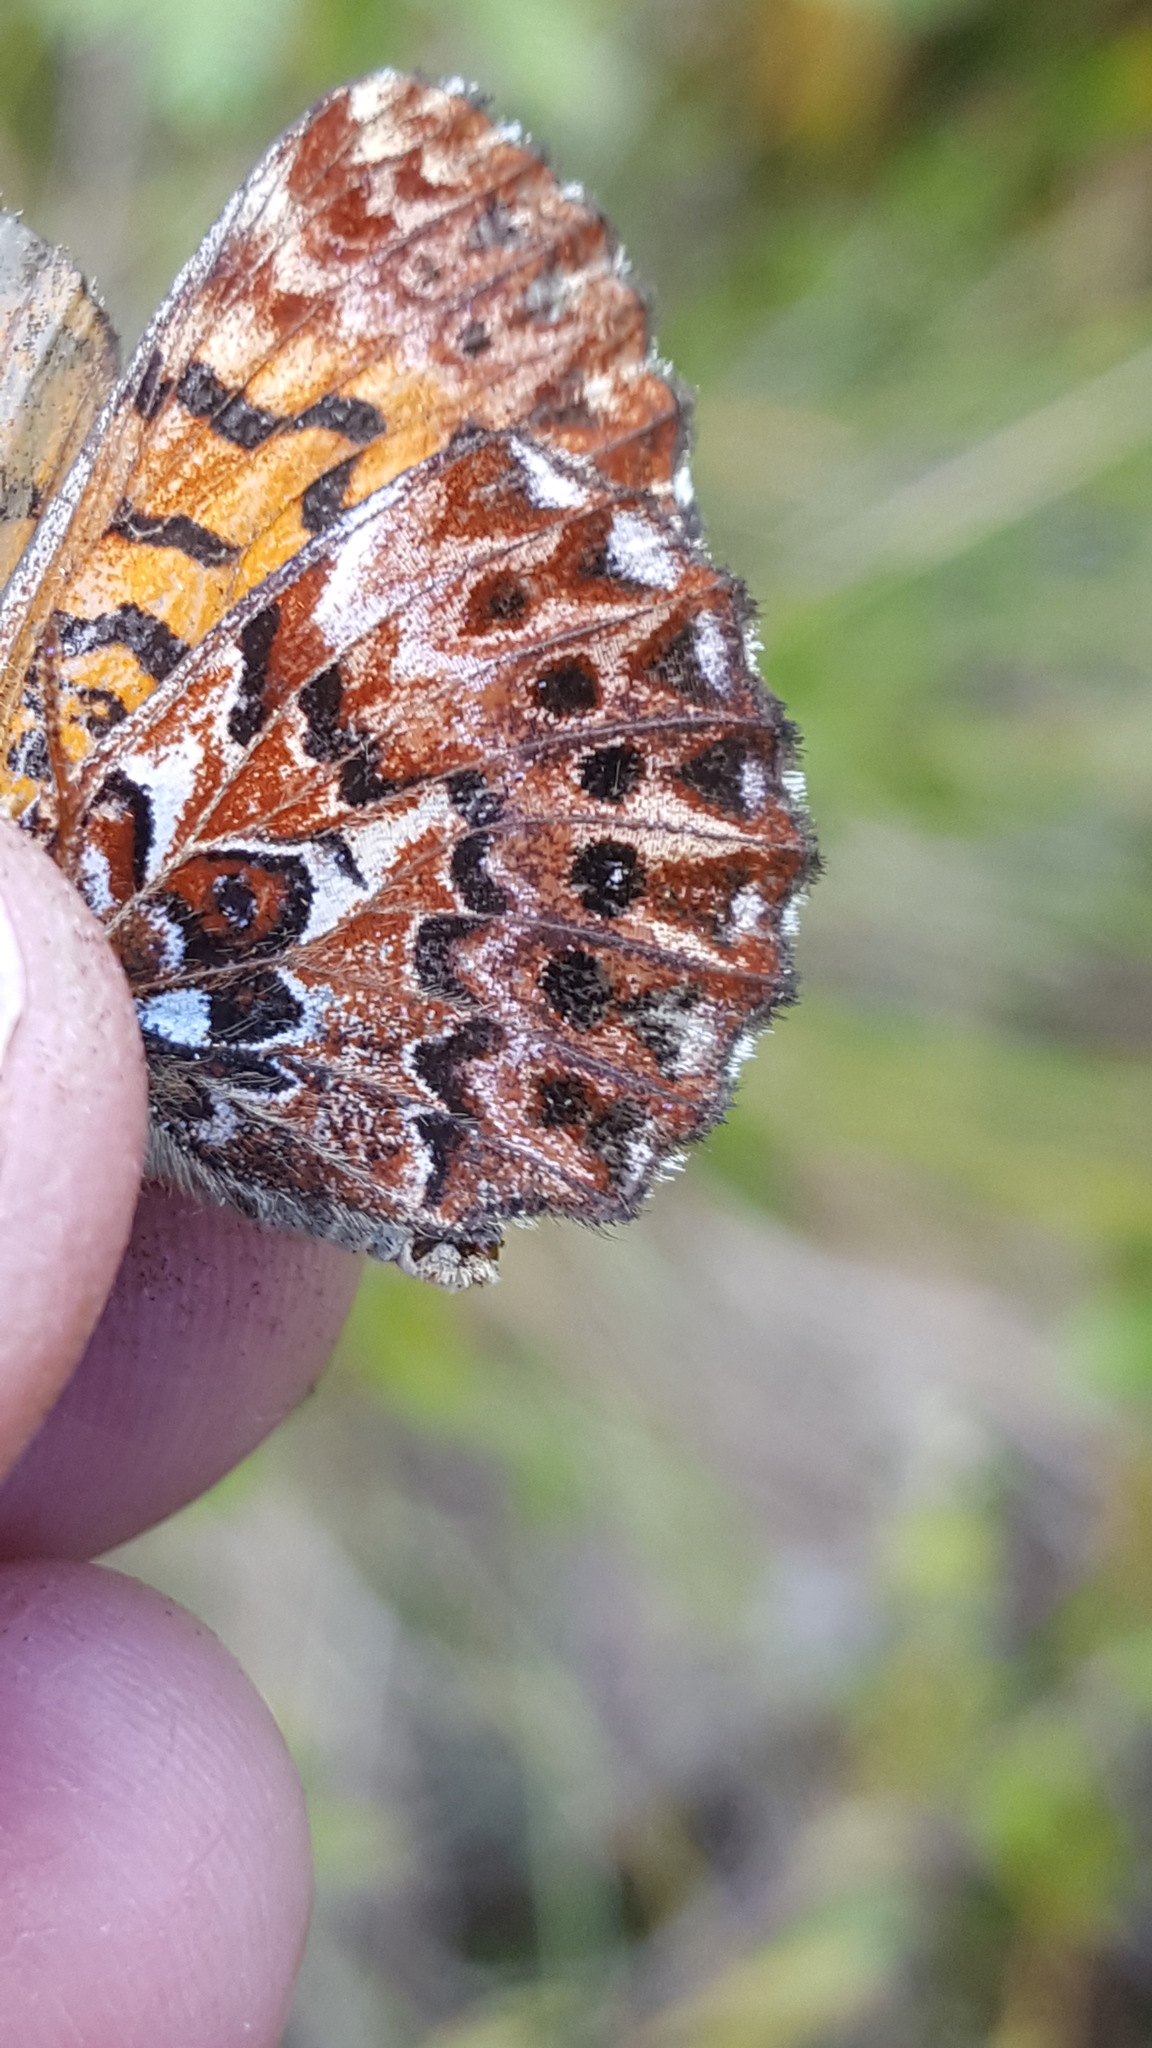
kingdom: Animalia
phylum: Arthropoda
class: Insecta
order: Lepidoptera
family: Nymphalidae
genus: Boloria
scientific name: Boloria chariclea
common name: Arctic fritillary
